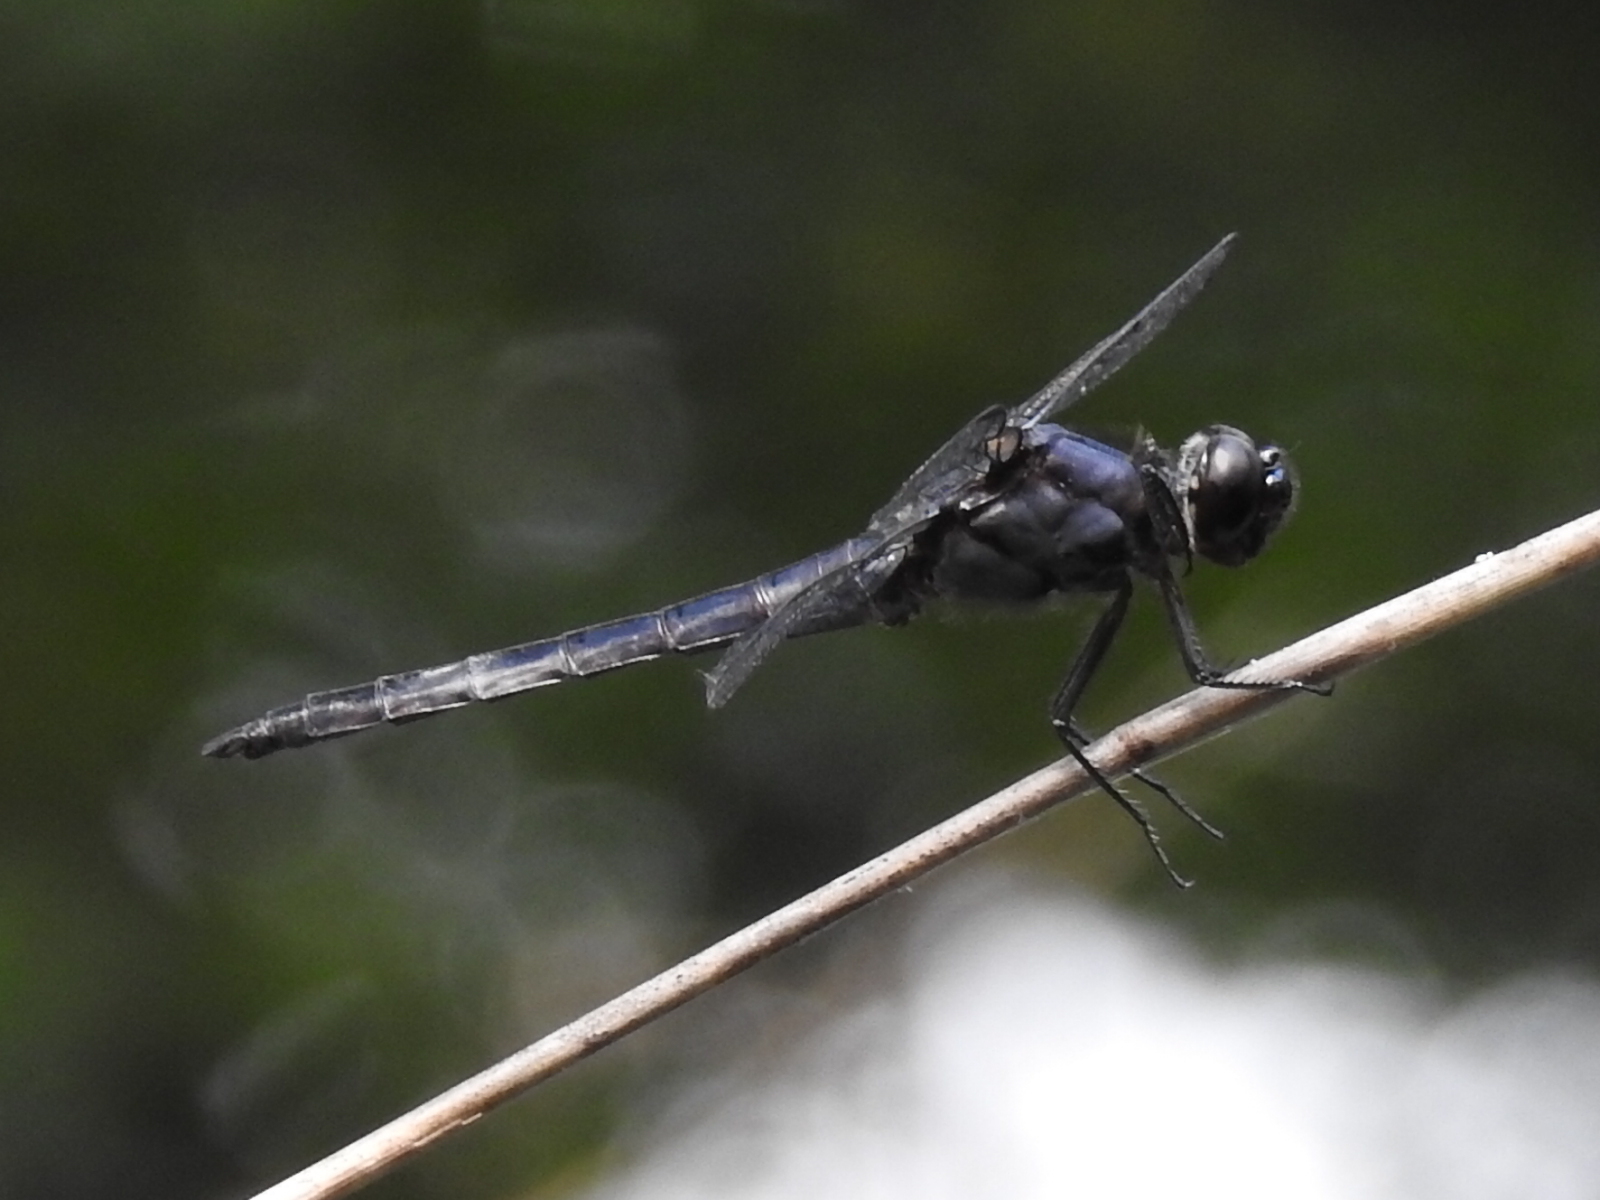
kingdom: Animalia
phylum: Arthropoda
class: Insecta
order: Odonata
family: Libellulidae
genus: Libellula
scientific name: Libellula incesta
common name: Slaty skimmer
